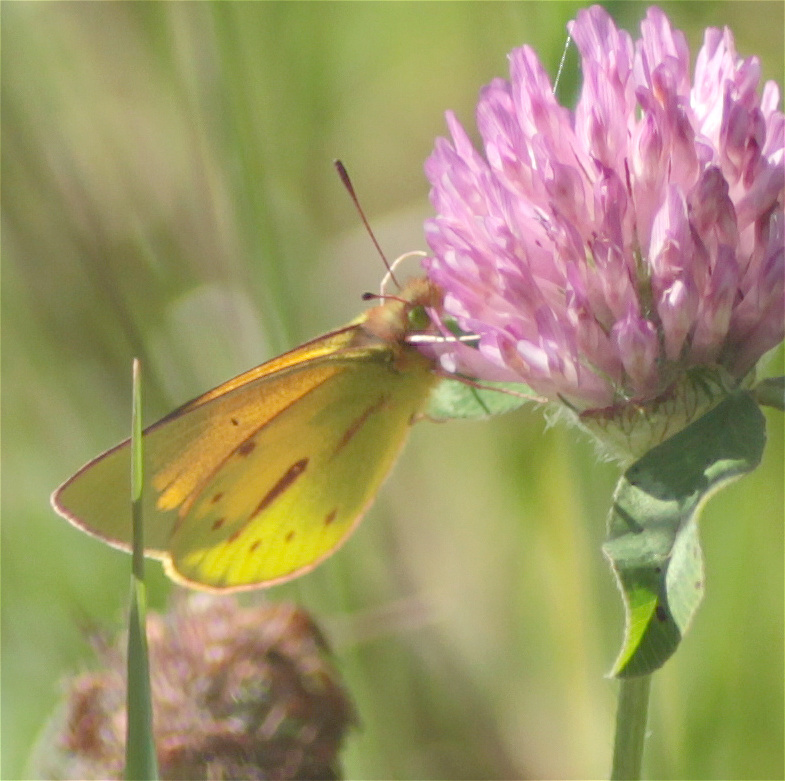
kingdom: Animalia
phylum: Arthropoda
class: Insecta
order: Lepidoptera
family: Pieridae
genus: Colias
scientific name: Colias dimera
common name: Dimera sulphur
